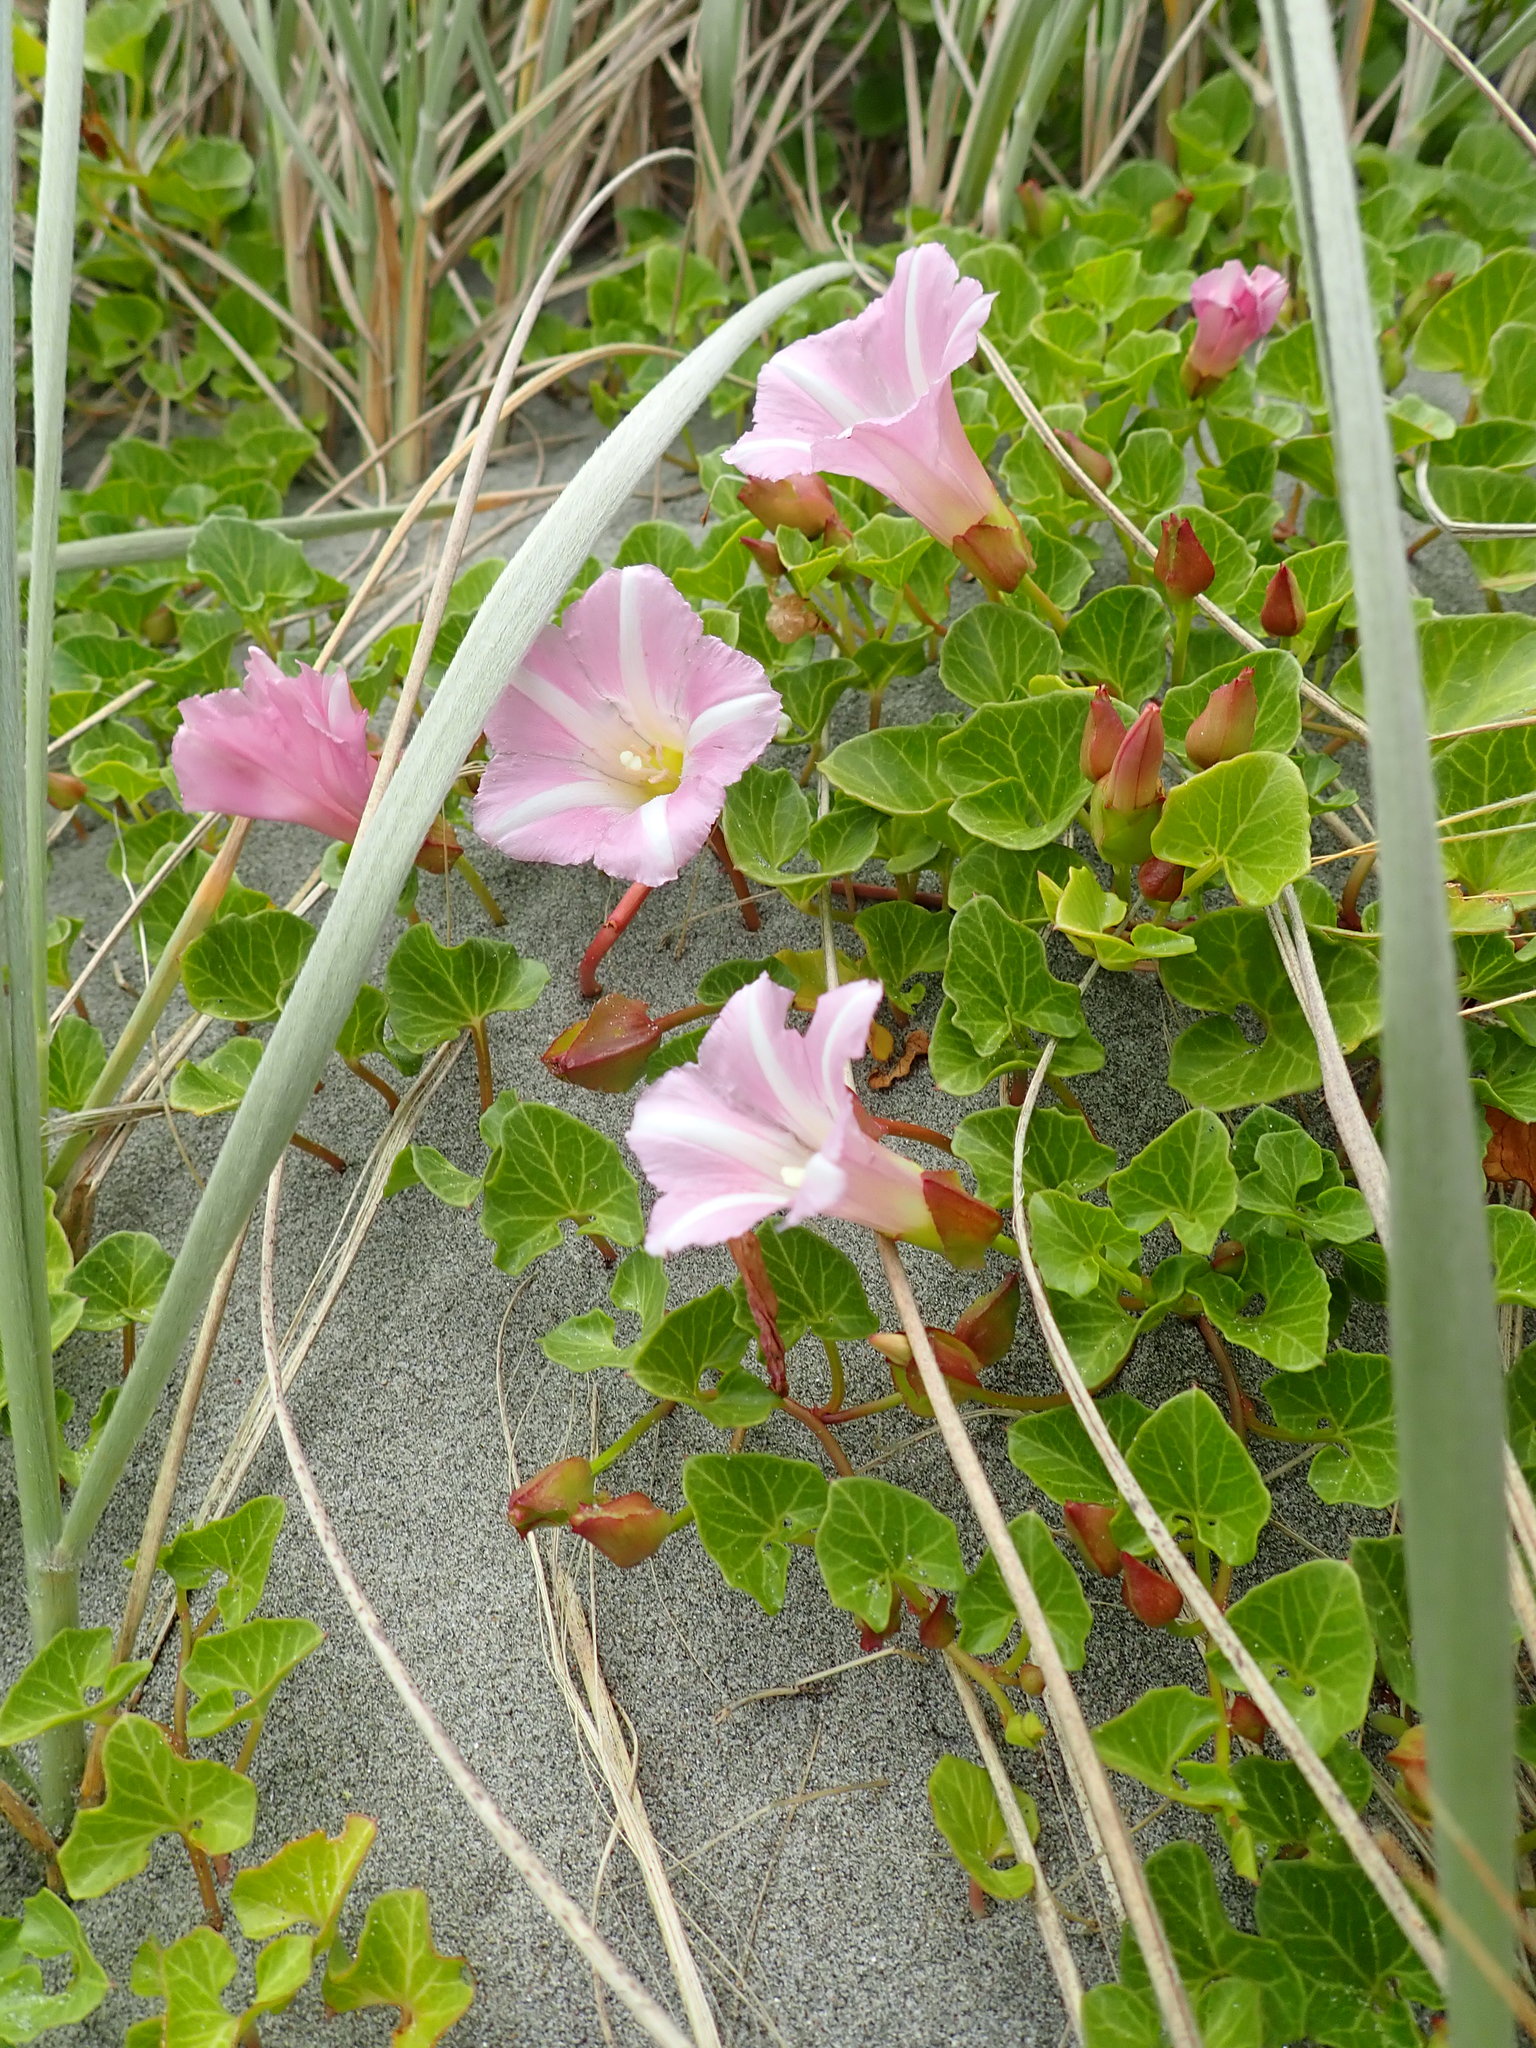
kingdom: Plantae
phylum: Tracheophyta
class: Magnoliopsida
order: Solanales
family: Convolvulaceae
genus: Calystegia
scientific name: Calystegia soldanella
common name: Sea bindweed
